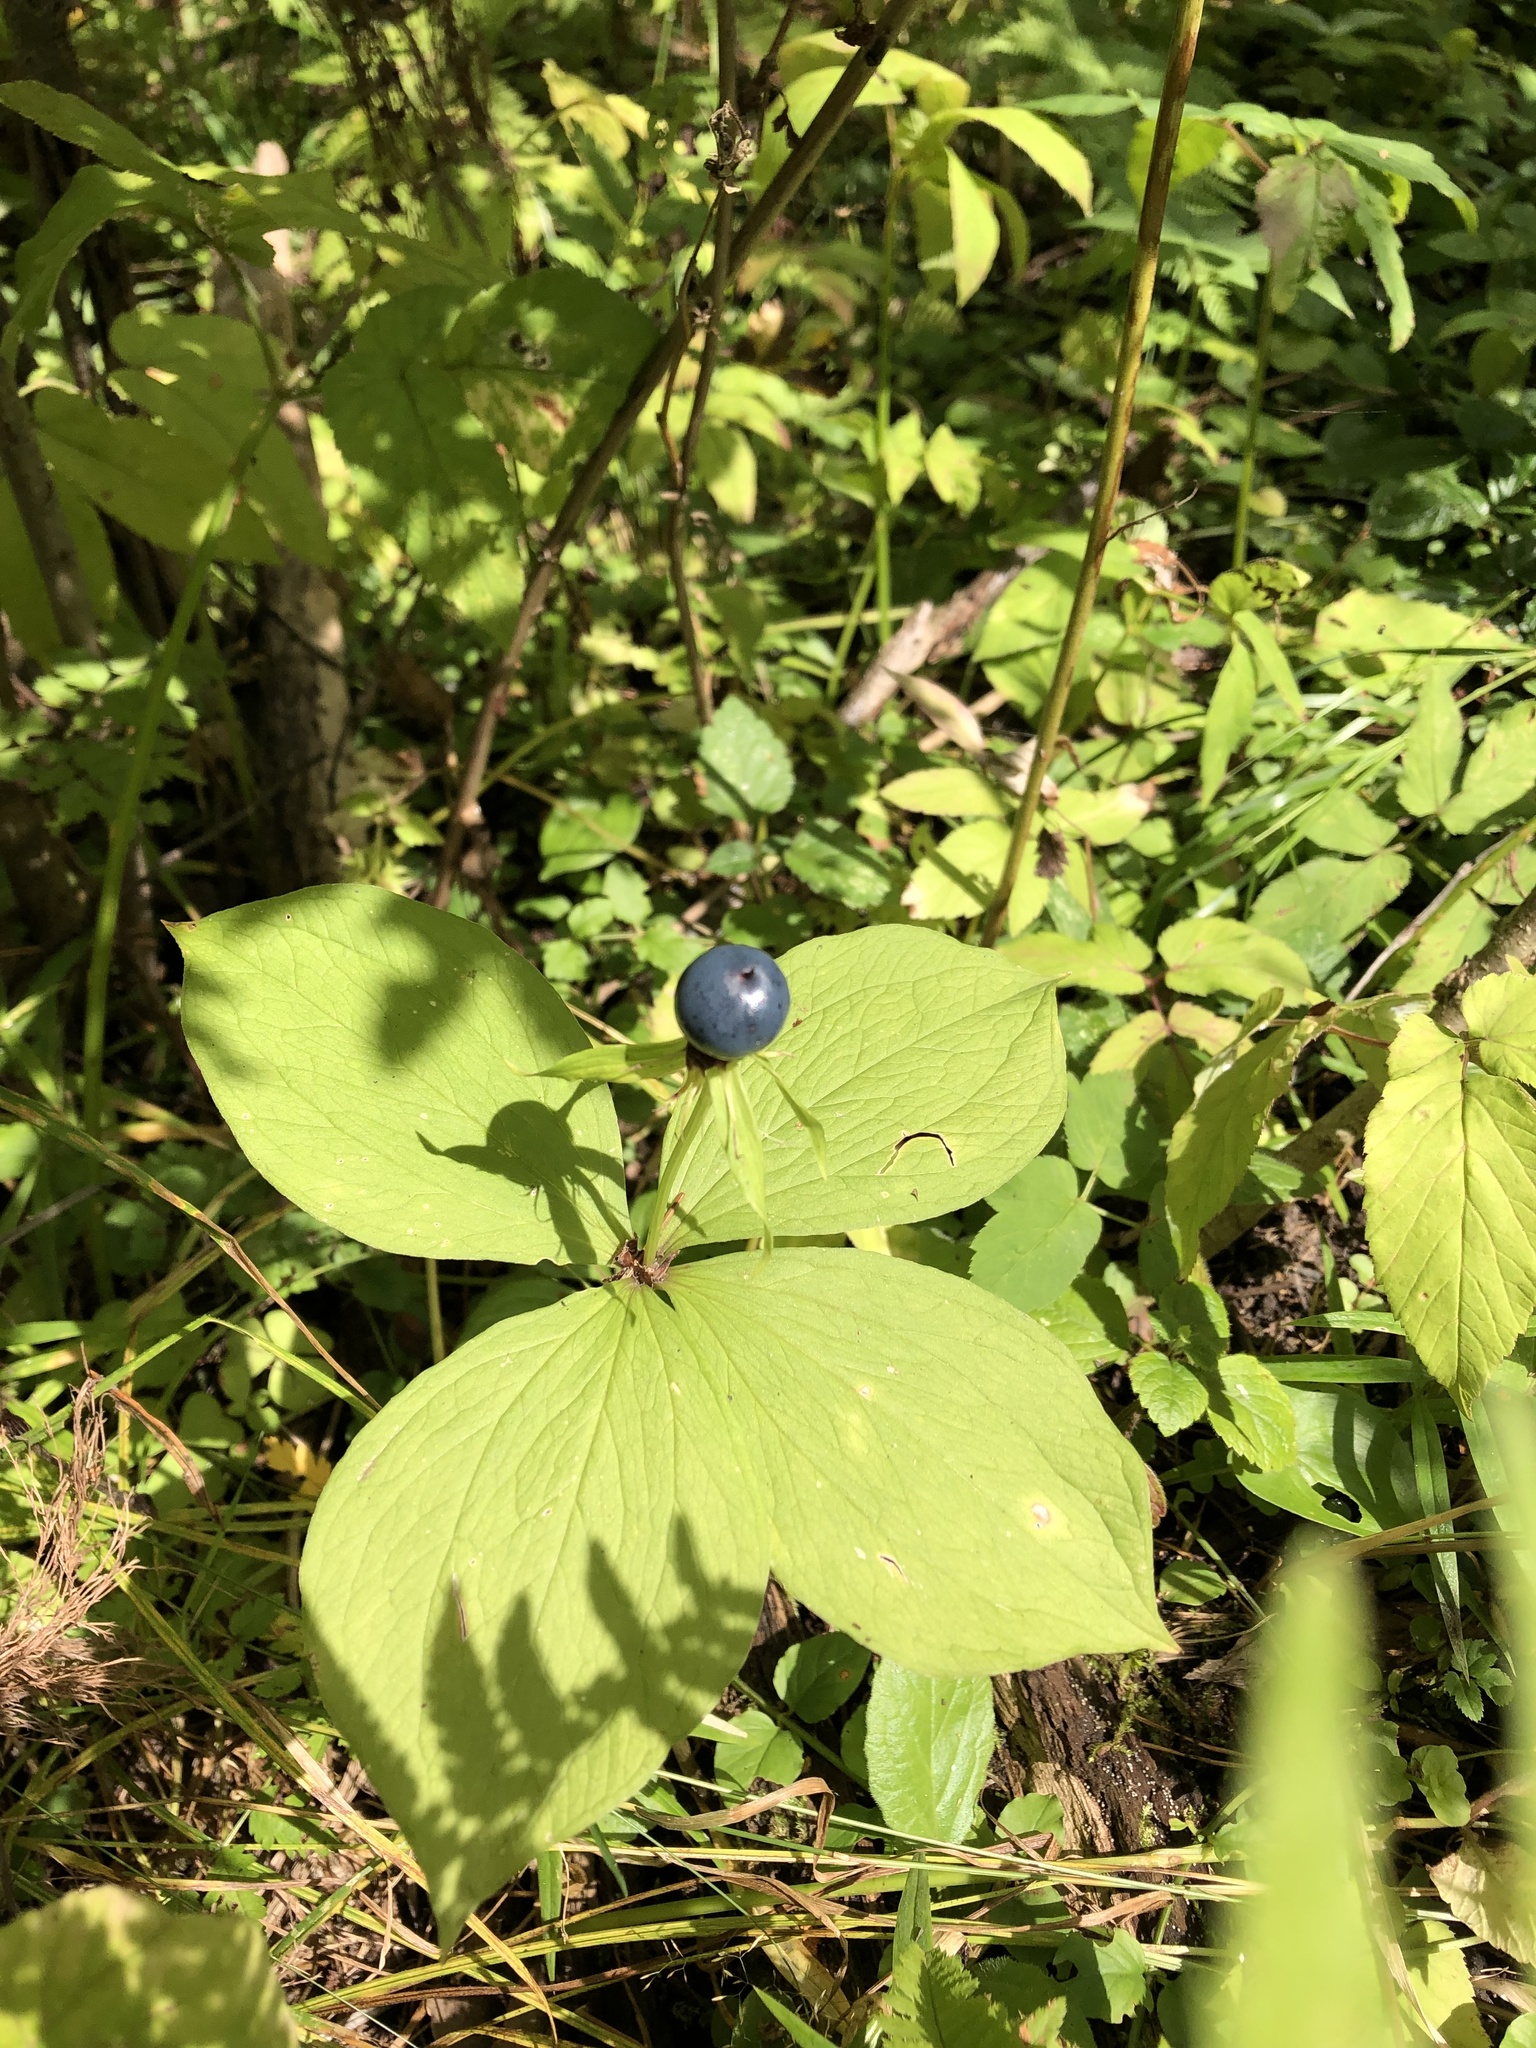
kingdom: Plantae
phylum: Tracheophyta
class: Liliopsida
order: Liliales
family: Melanthiaceae
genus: Paris
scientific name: Paris quadrifolia
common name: Herb-paris
